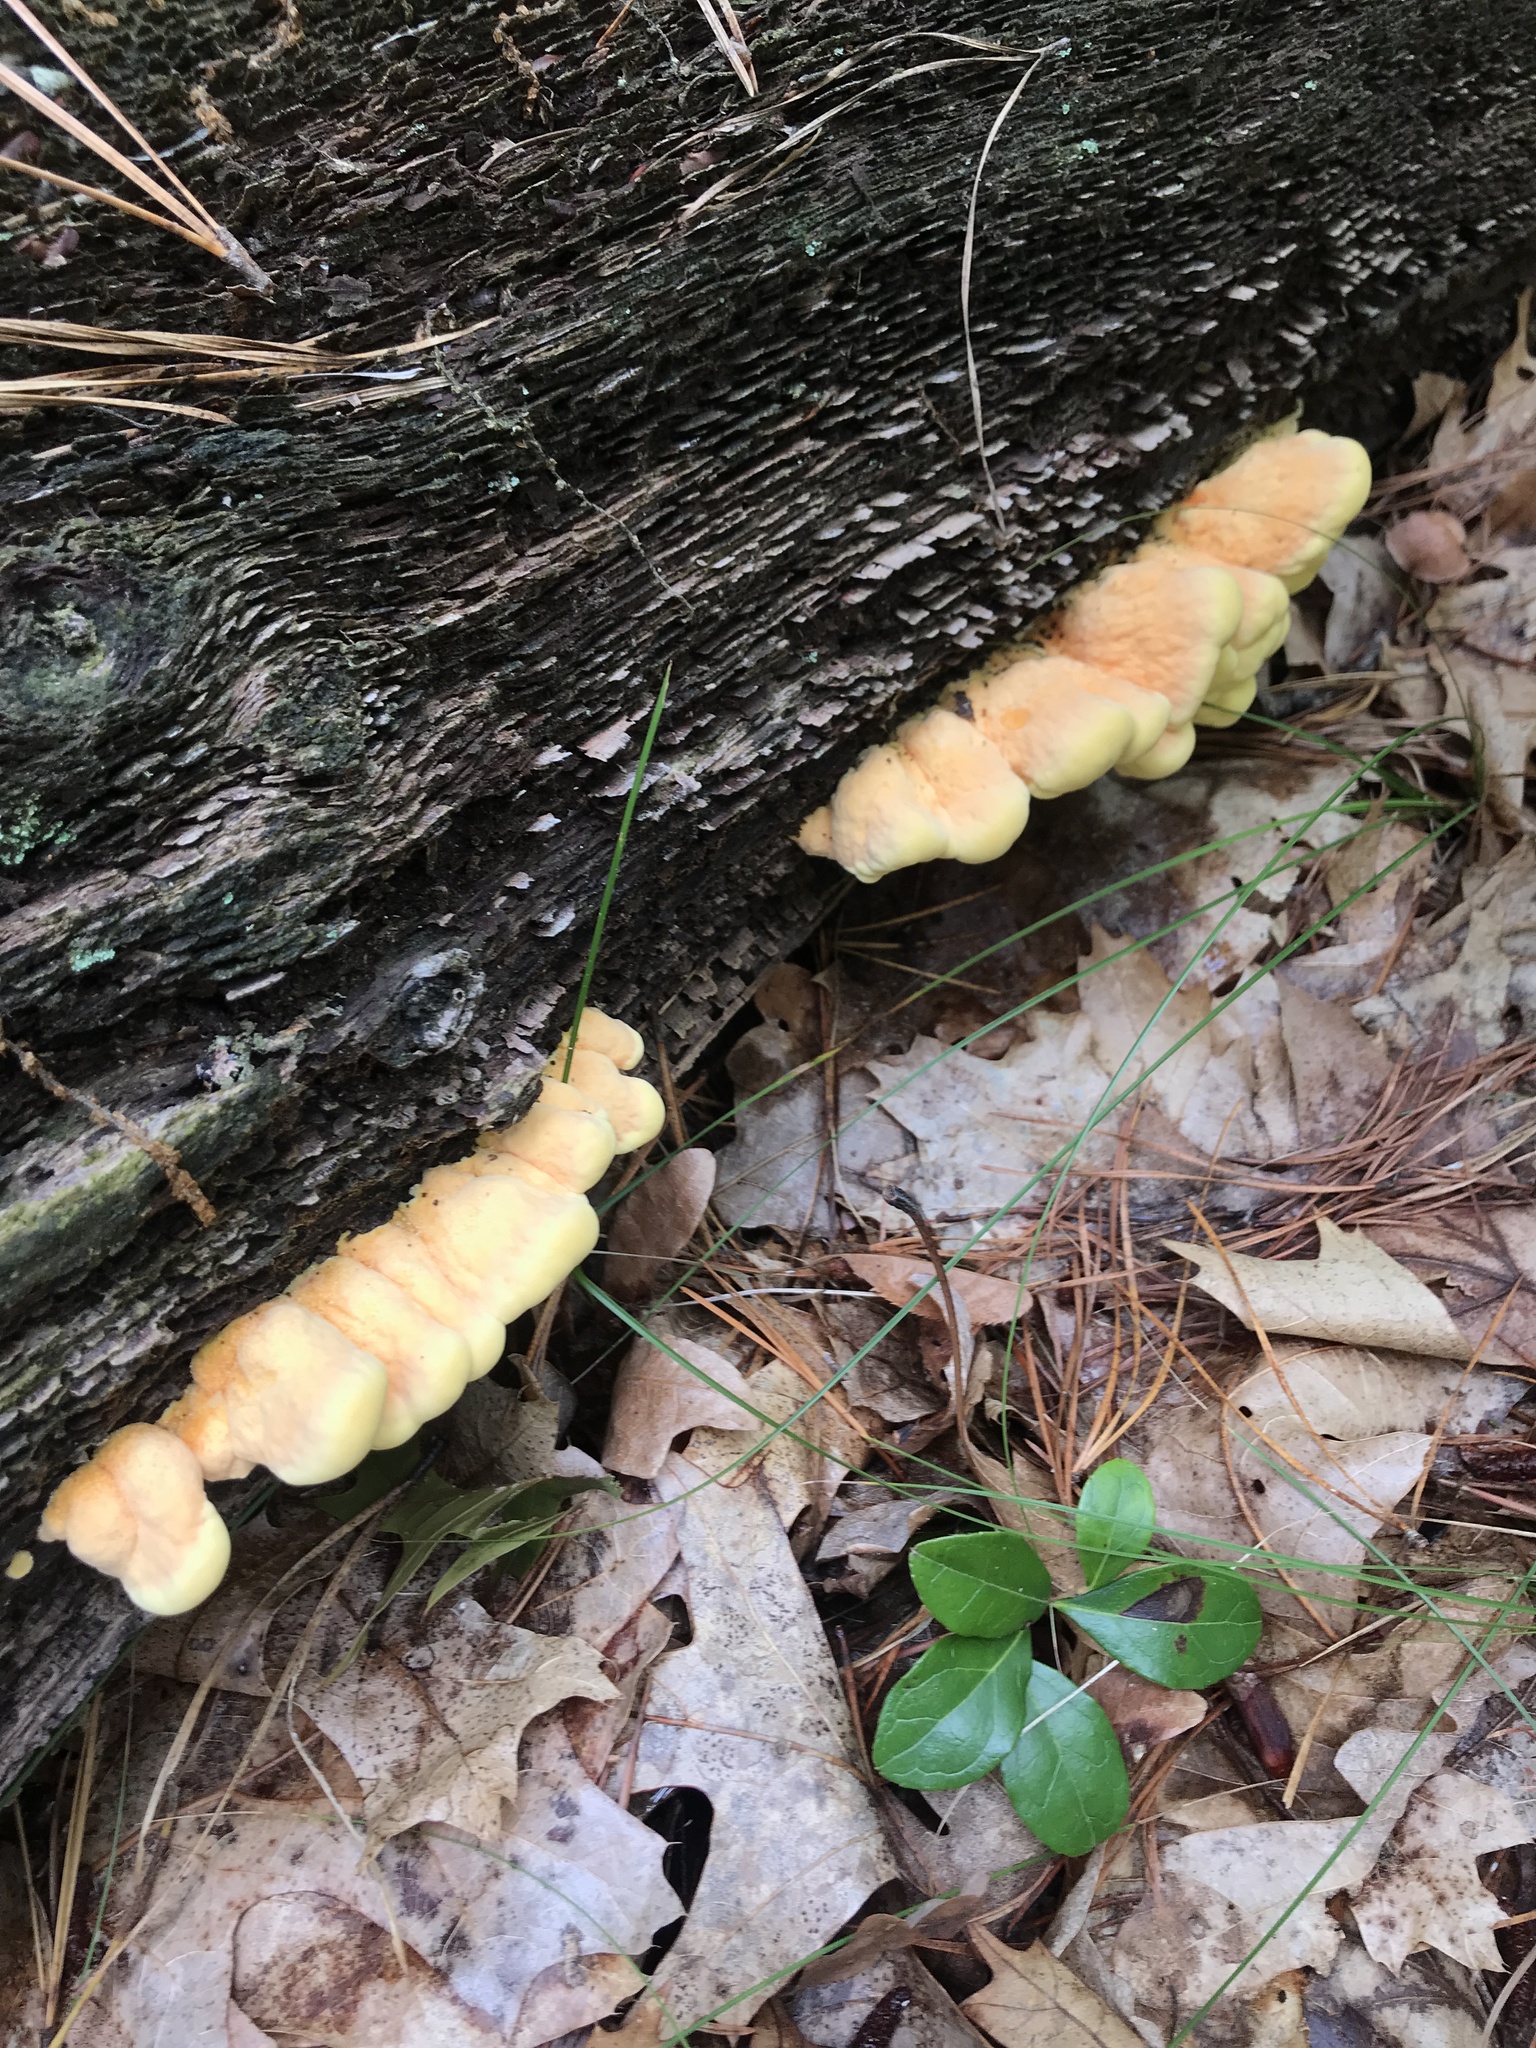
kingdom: Fungi
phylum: Basidiomycota
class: Agaricomycetes
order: Polyporales
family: Laetiporaceae
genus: Laetiporus
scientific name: Laetiporus sulphureus
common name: Chicken of the woods
